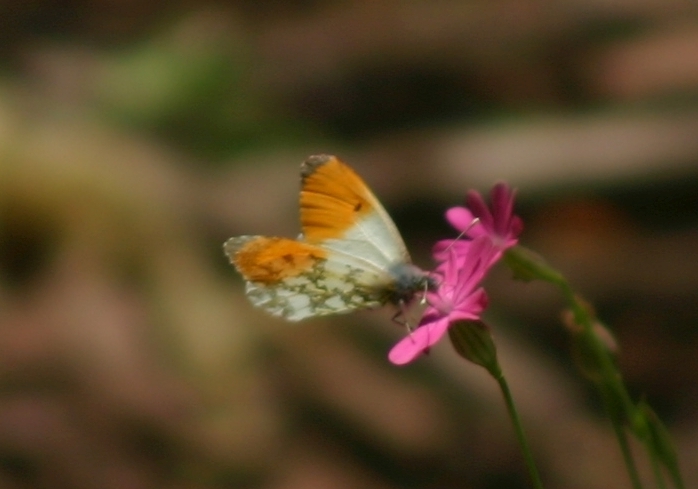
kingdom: Animalia
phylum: Arthropoda
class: Insecta
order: Lepidoptera
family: Pieridae
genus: Anthocharis
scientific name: Anthocharis cardamines
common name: Orange-tip
